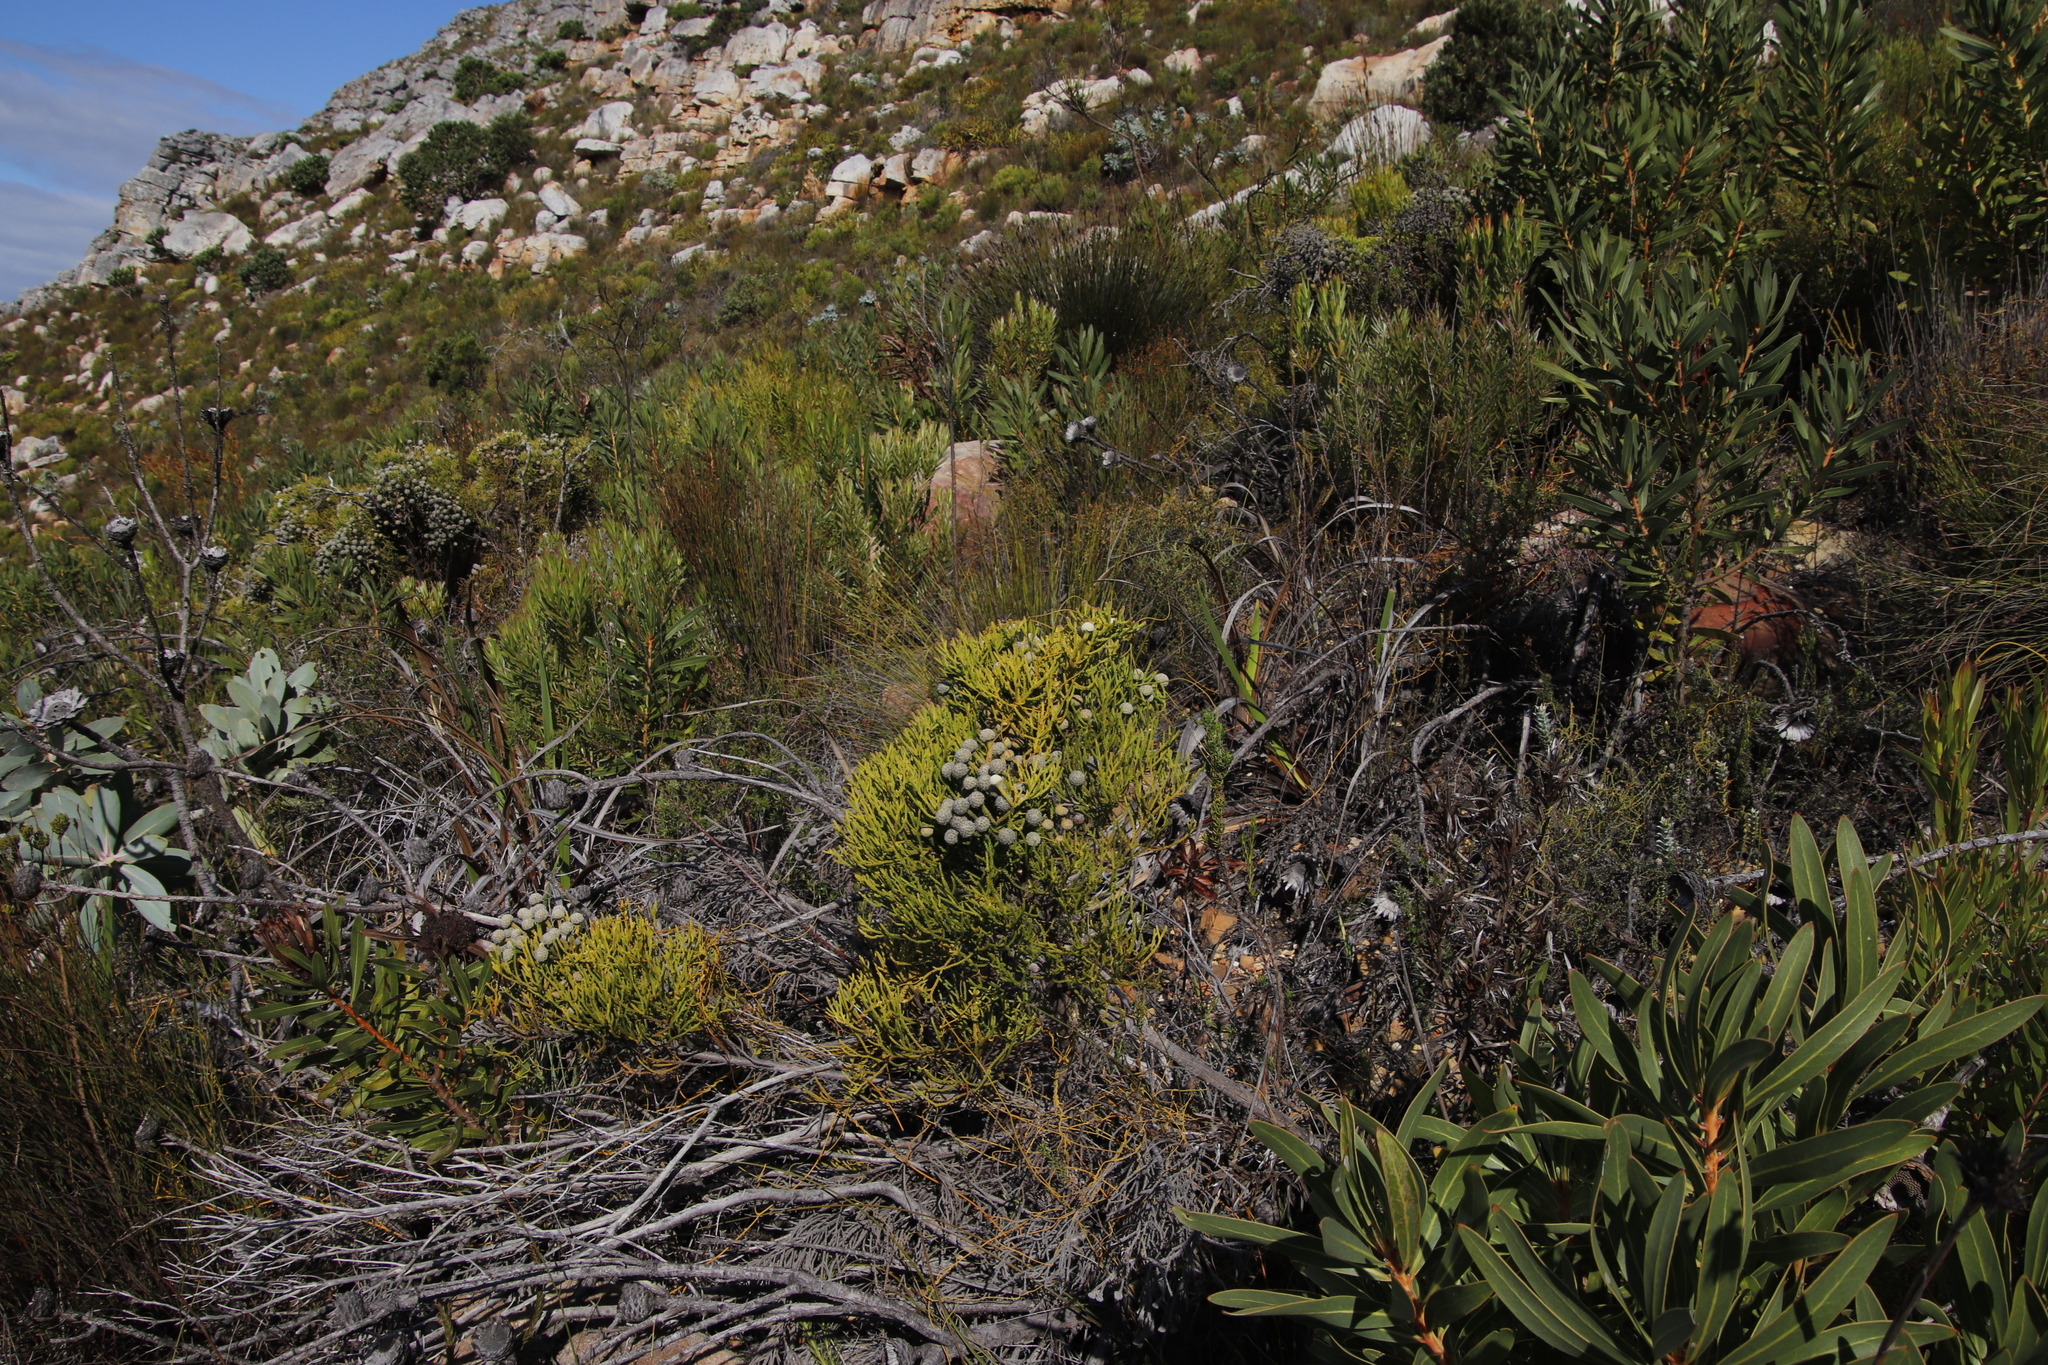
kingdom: Plantae
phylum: Tracheophyta
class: Magnoliopsida
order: Bruniales
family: Bruniaceae
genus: Brunia
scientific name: Brunia noduliflora
